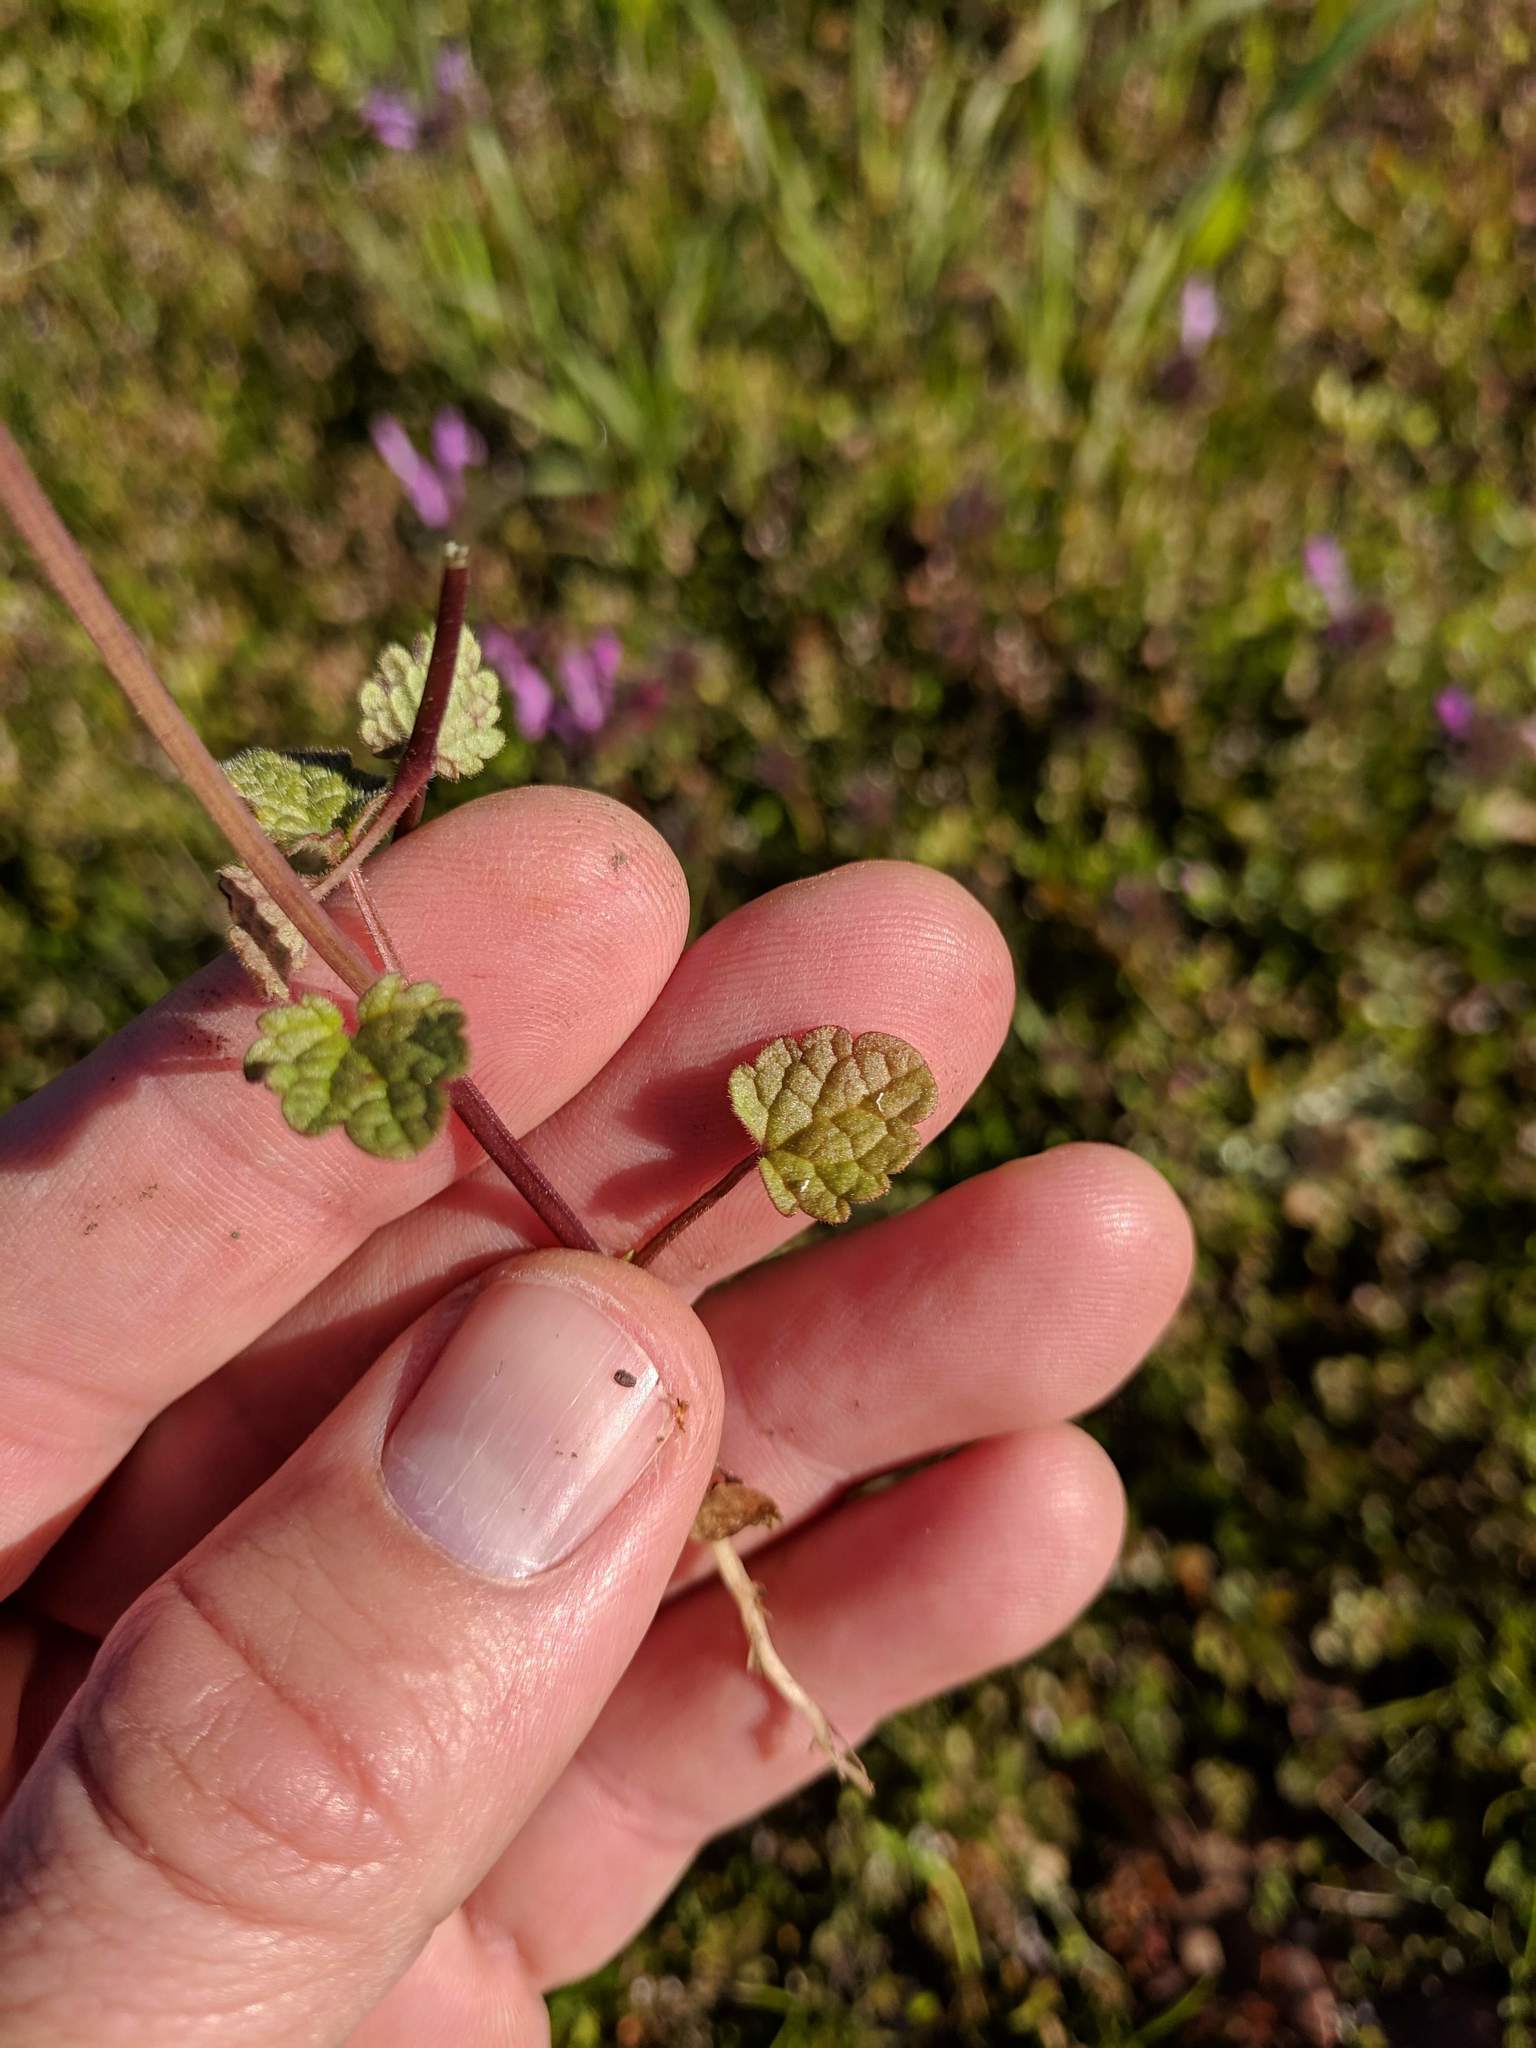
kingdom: Plantae
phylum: Tracheophyta
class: Magnoliopsida
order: Lamiales
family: Lamiaceae
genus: Lamium
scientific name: Lamium amplexicaule
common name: Henbit dead-nettle
